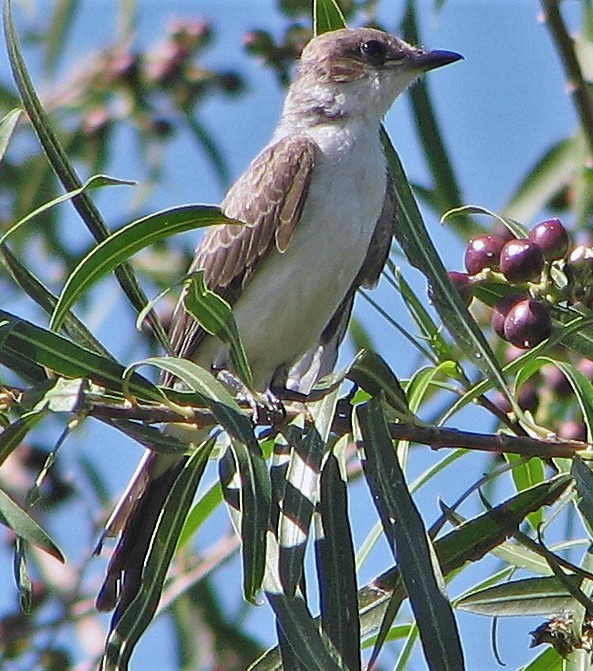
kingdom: Animalia
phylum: Chordata
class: Aves
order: Passeriformes
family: Tyrannidae
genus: Tyrannus
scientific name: Tyrannus savana
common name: Fork-tailed flycatcher
